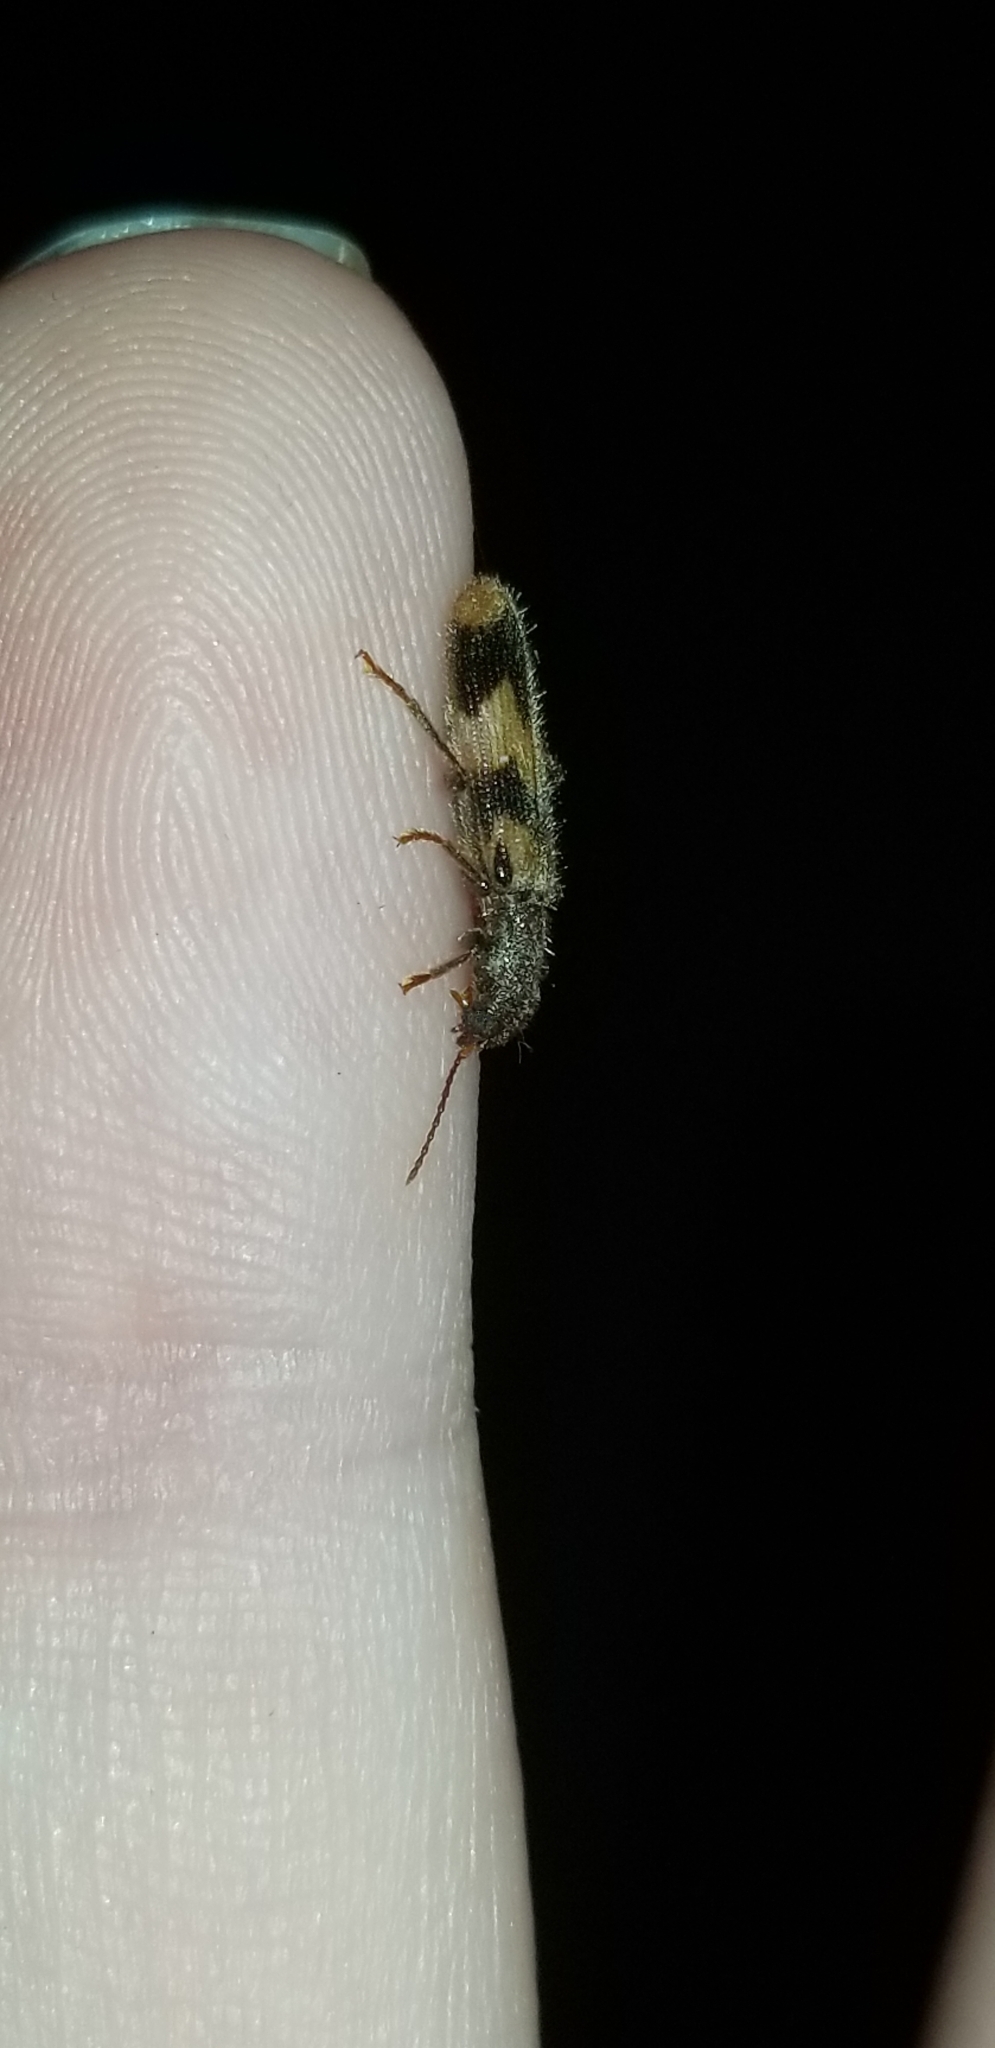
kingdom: Animalia
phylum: Arthropoda
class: Insecta
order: Coleoptera
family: Cleridae
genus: Cymatodera
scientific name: Cymatodera sirpata
